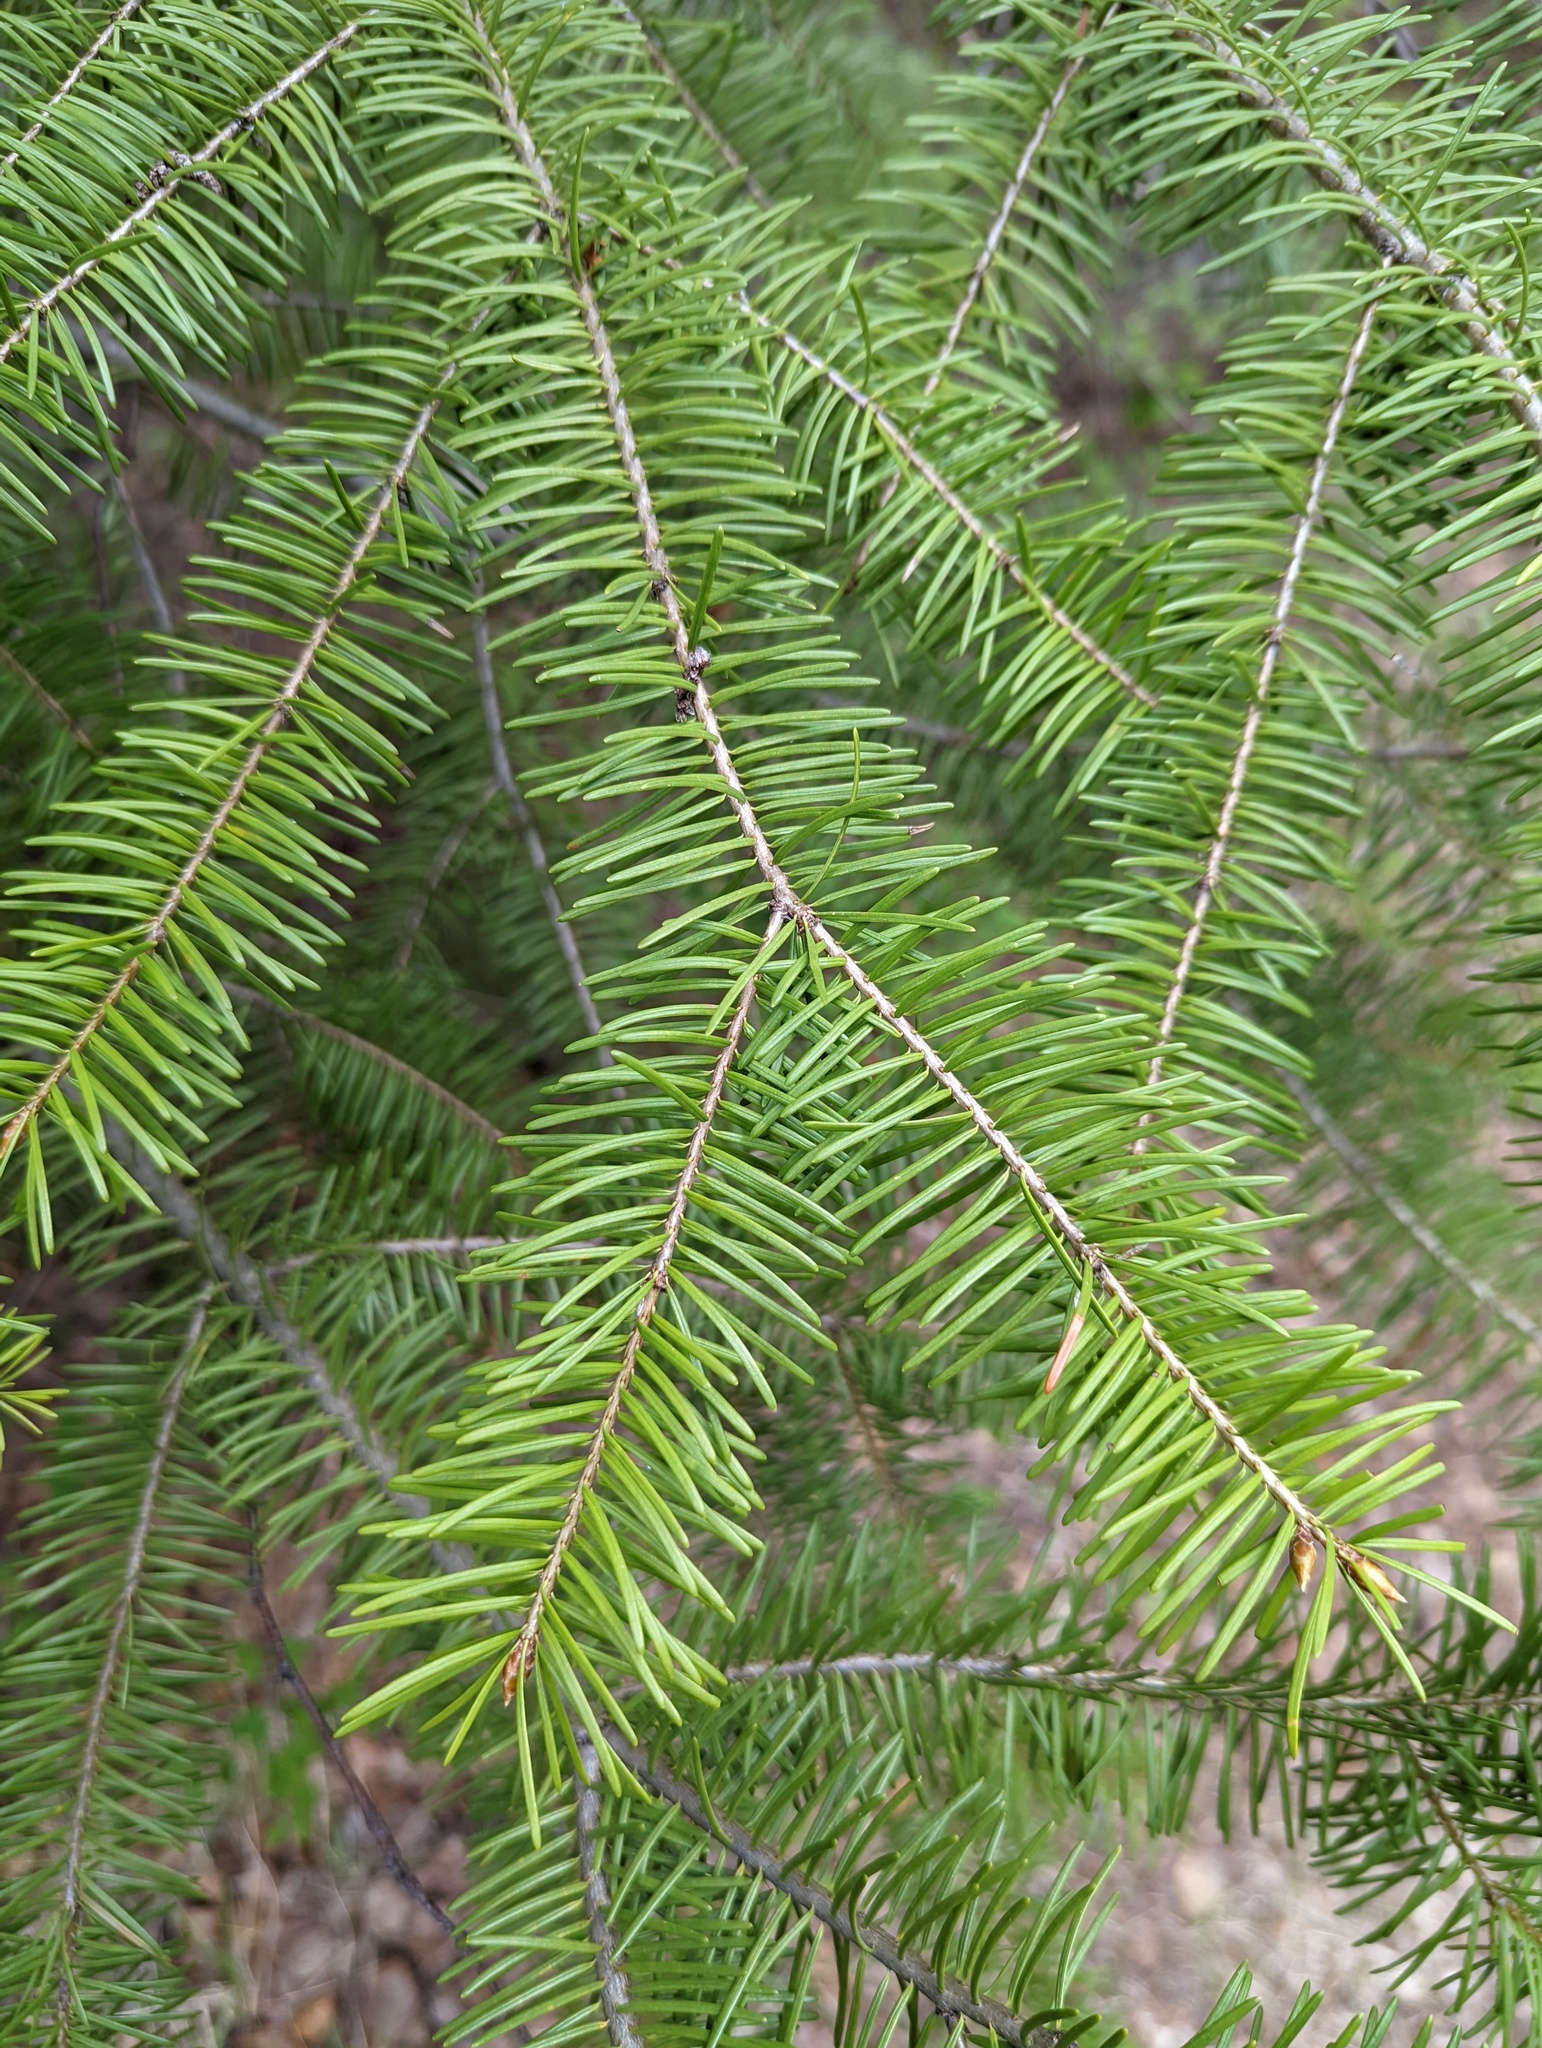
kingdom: Plantae
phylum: Tracheophyta
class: Pinopsida
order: Pinales
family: Pinaceae
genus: Pseudotsuga
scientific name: Pseudotsuga menziesii
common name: Douglas fir
